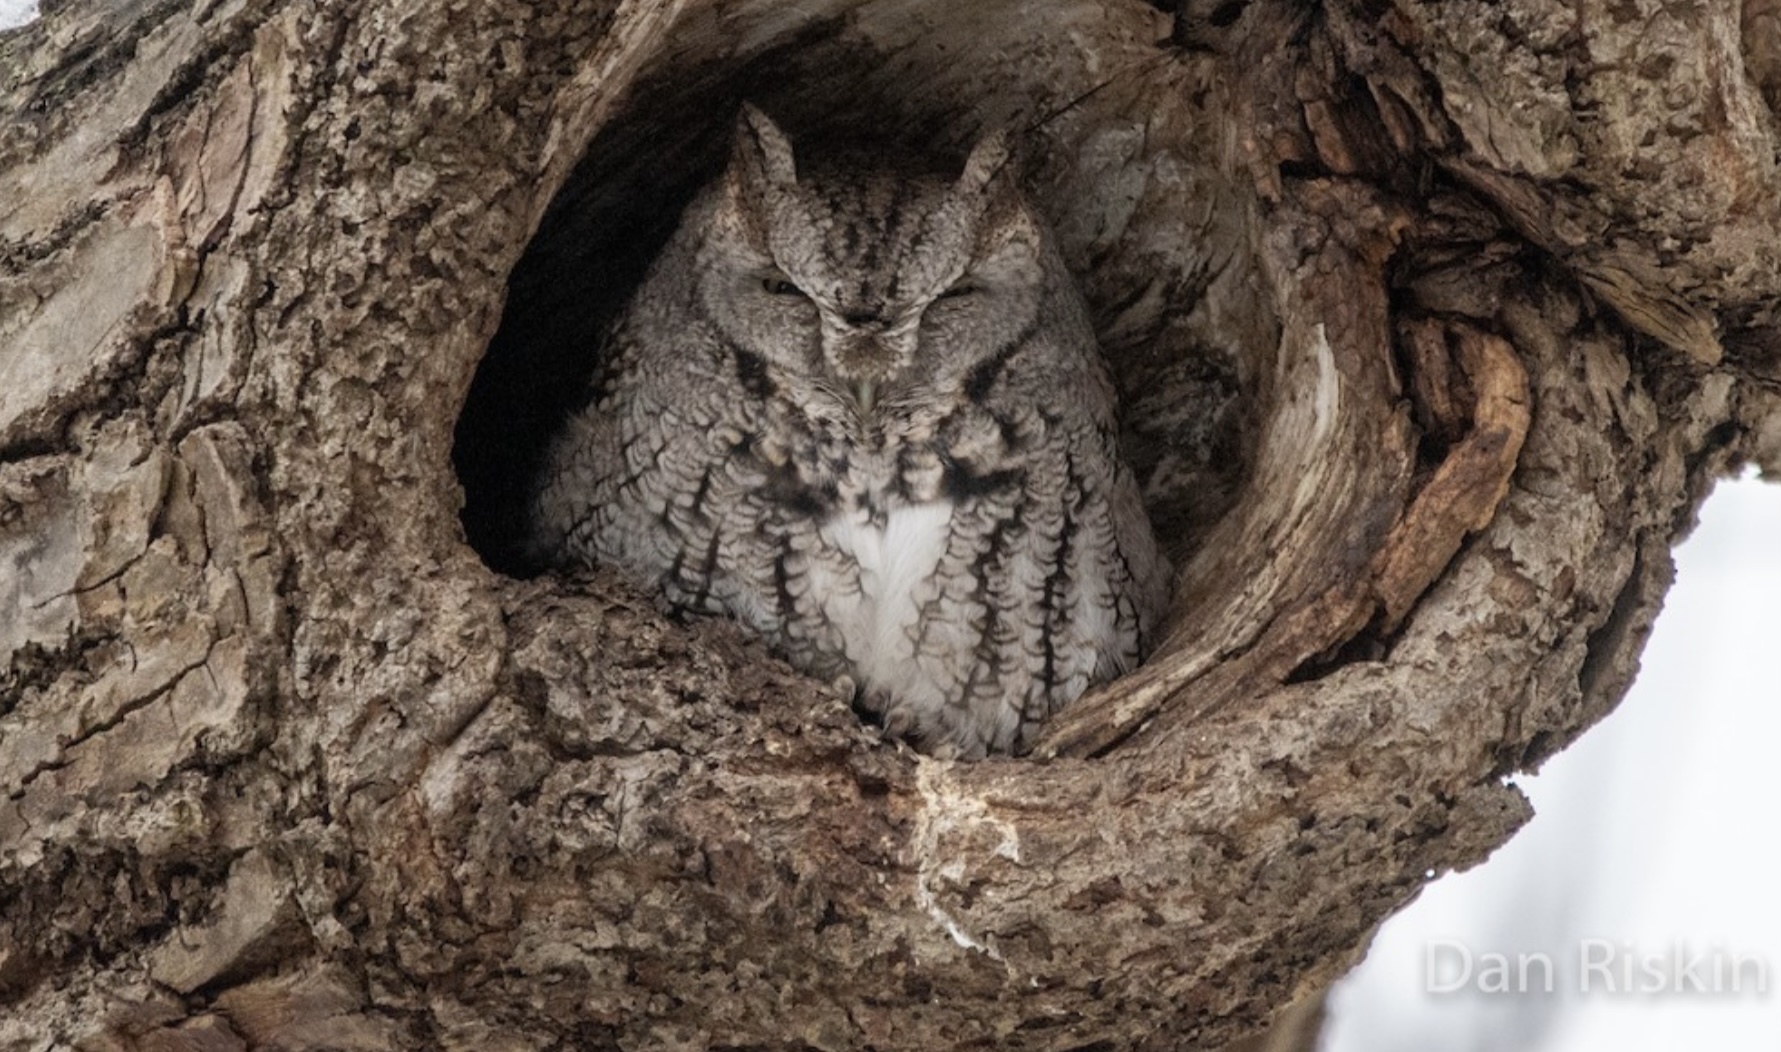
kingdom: Animalia
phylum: Chordata
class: Aves
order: Strigiformes
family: Strigidae
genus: Megascops
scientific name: Megascops asio
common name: Eastern screech-owl
